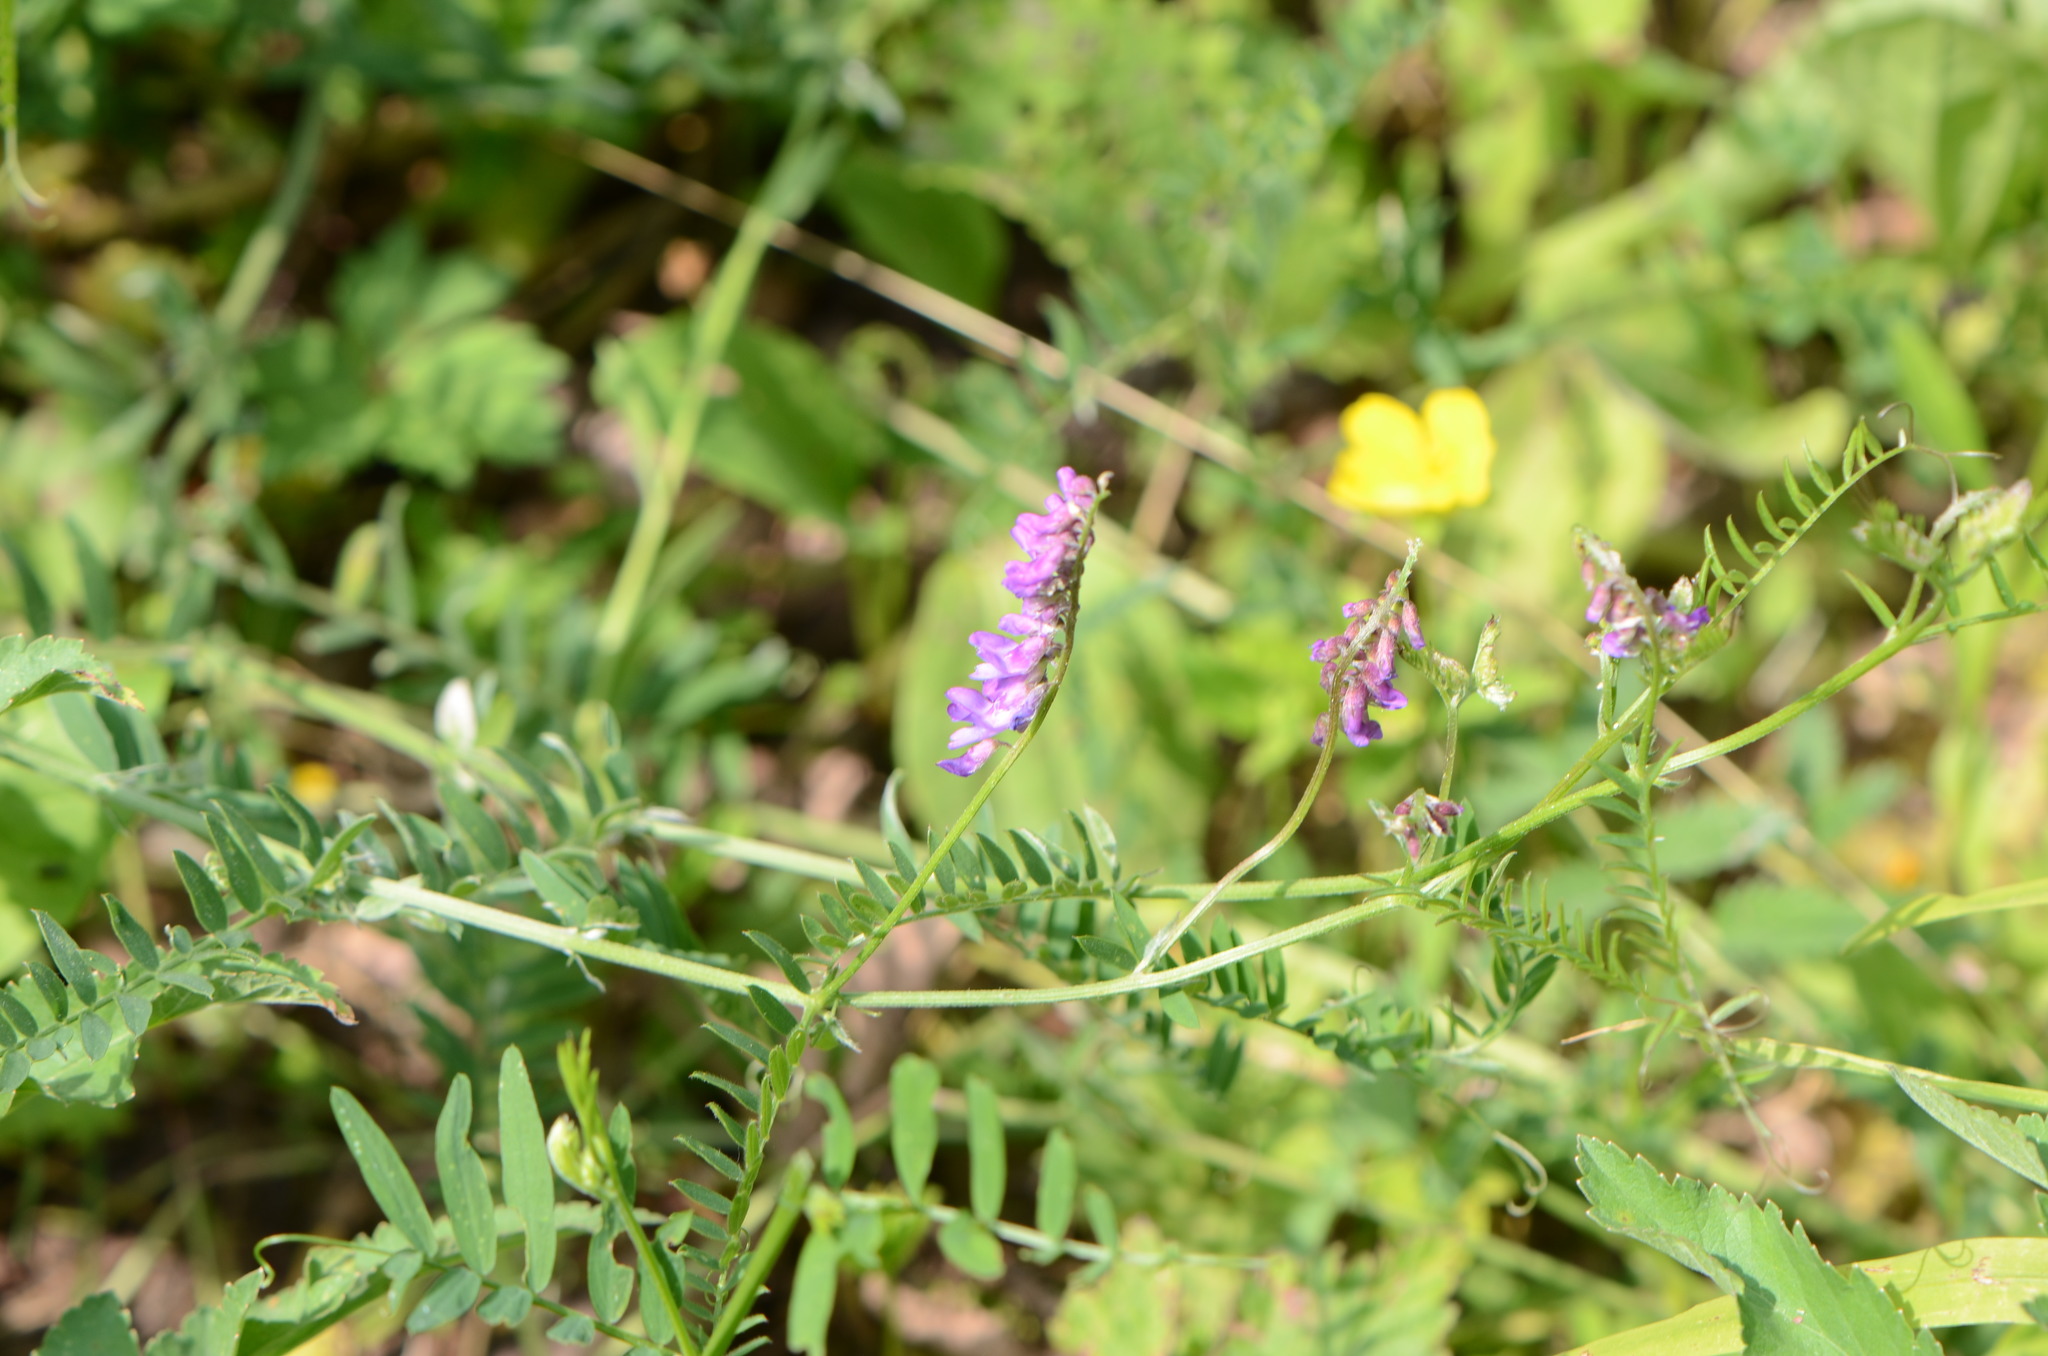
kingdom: Plantae
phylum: Tracheophyta
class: Magnoliopsida
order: Fabales
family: Fabaceae
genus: Vicia
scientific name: Vicia cracca
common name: Bird vetch
